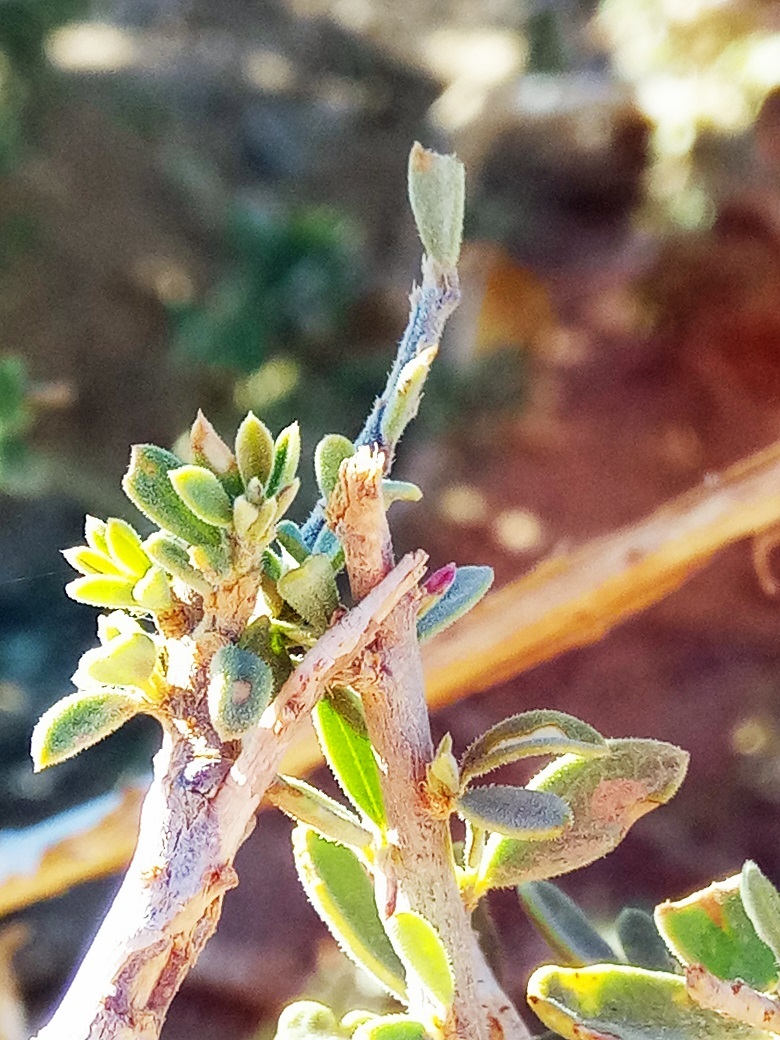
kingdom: Plantae
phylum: Tracheophyta
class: Magnoliopsida
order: Brassicales
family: Capparaceae
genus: Maerua
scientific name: Maerua crassifolia
